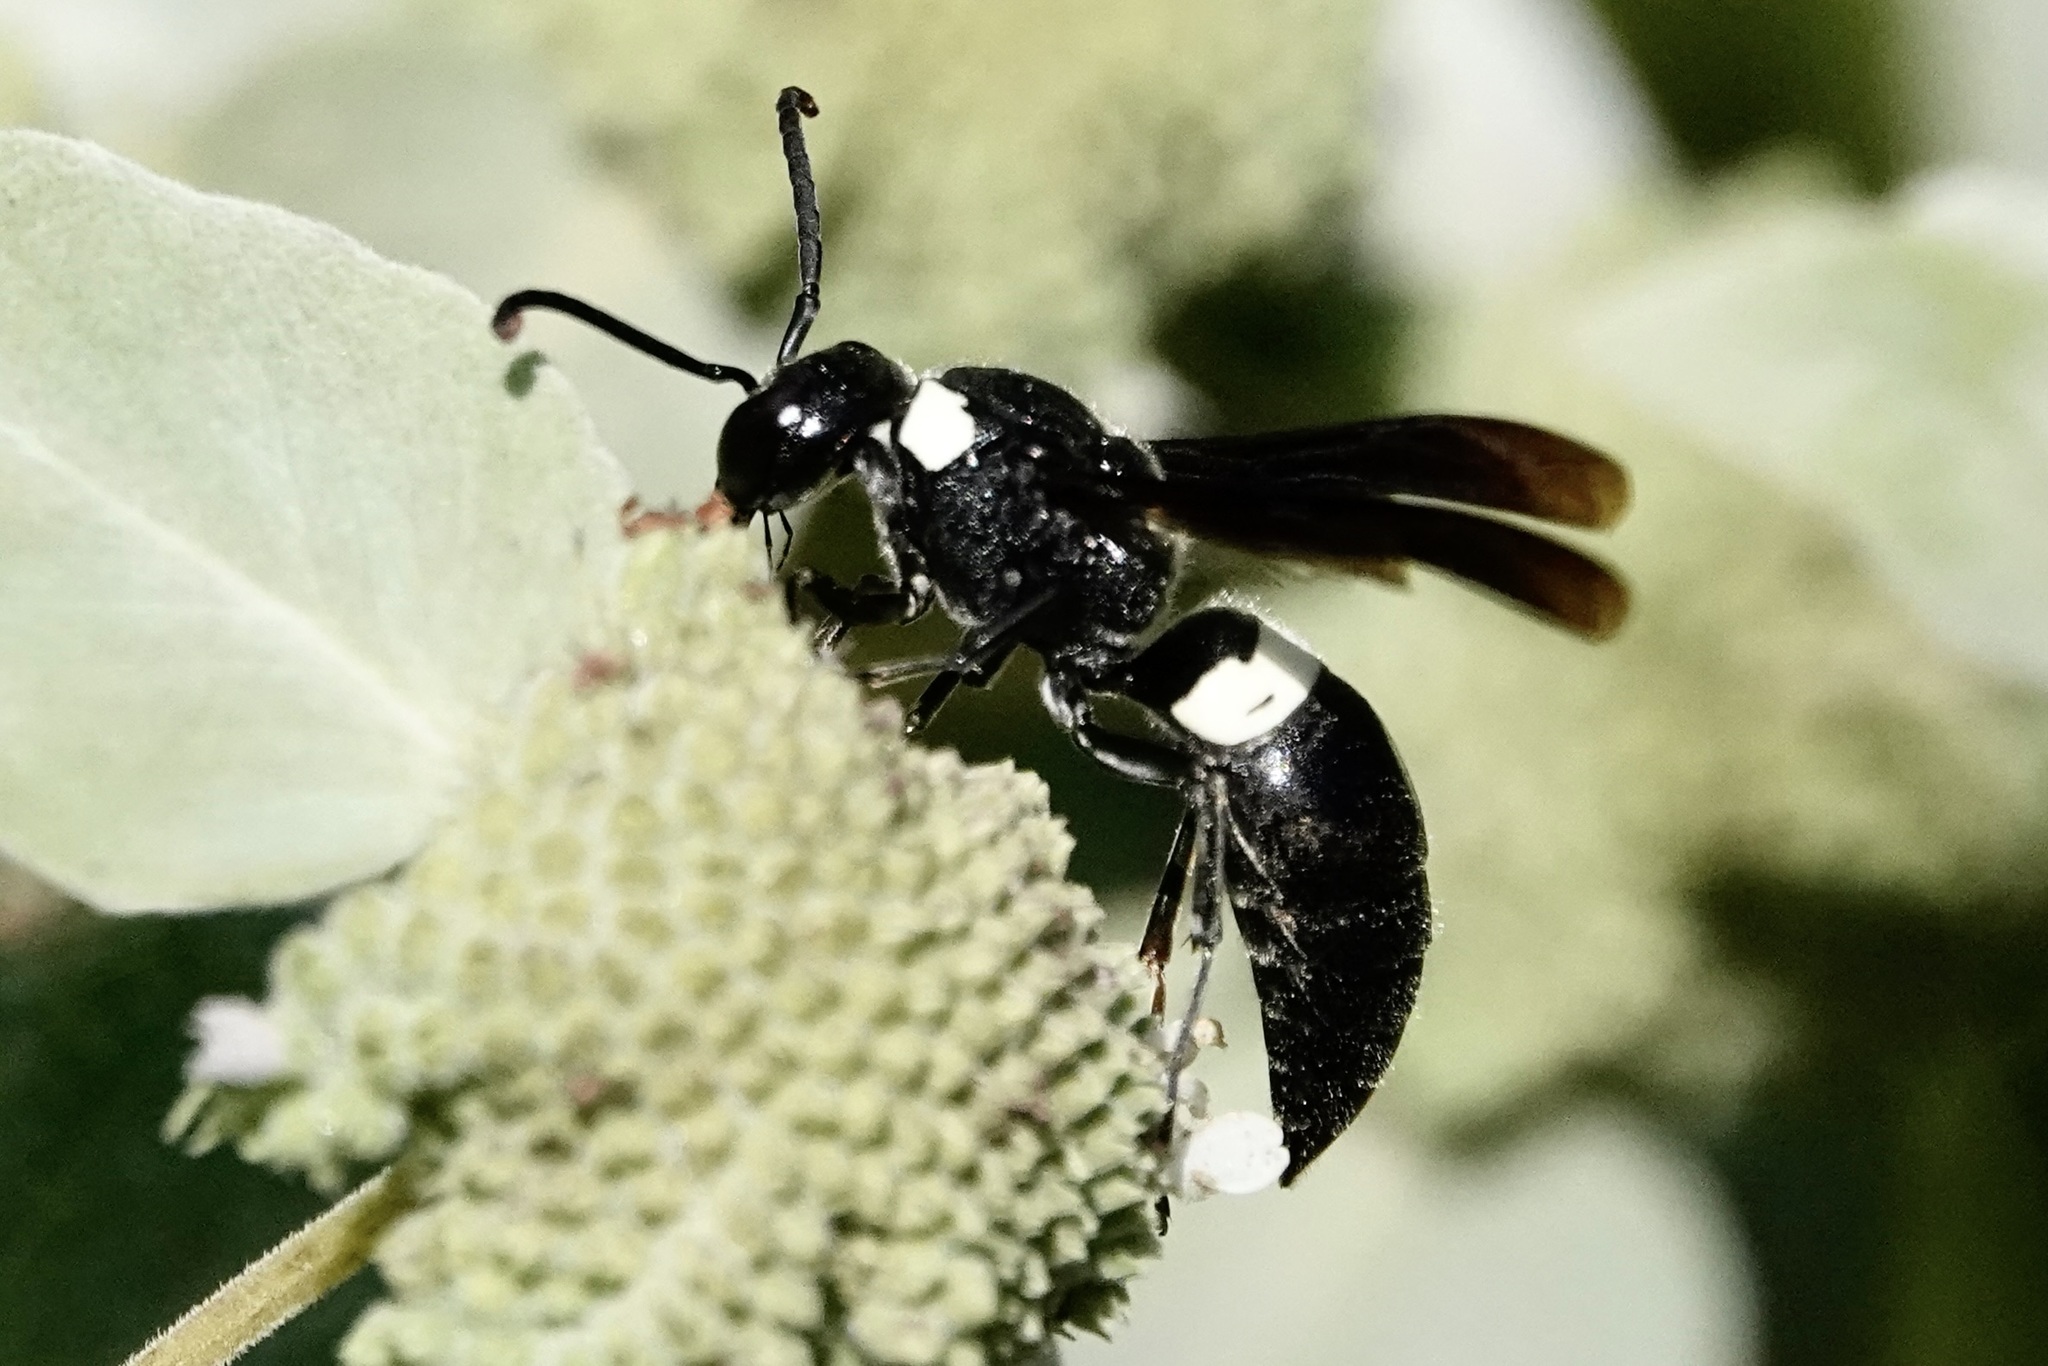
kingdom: Animalia
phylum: Arthropoda
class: Insecta
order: Hymenoptera
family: Eumenidae
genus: Monobia
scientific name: Monobia quadridens
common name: Four-toothed mason wasp
